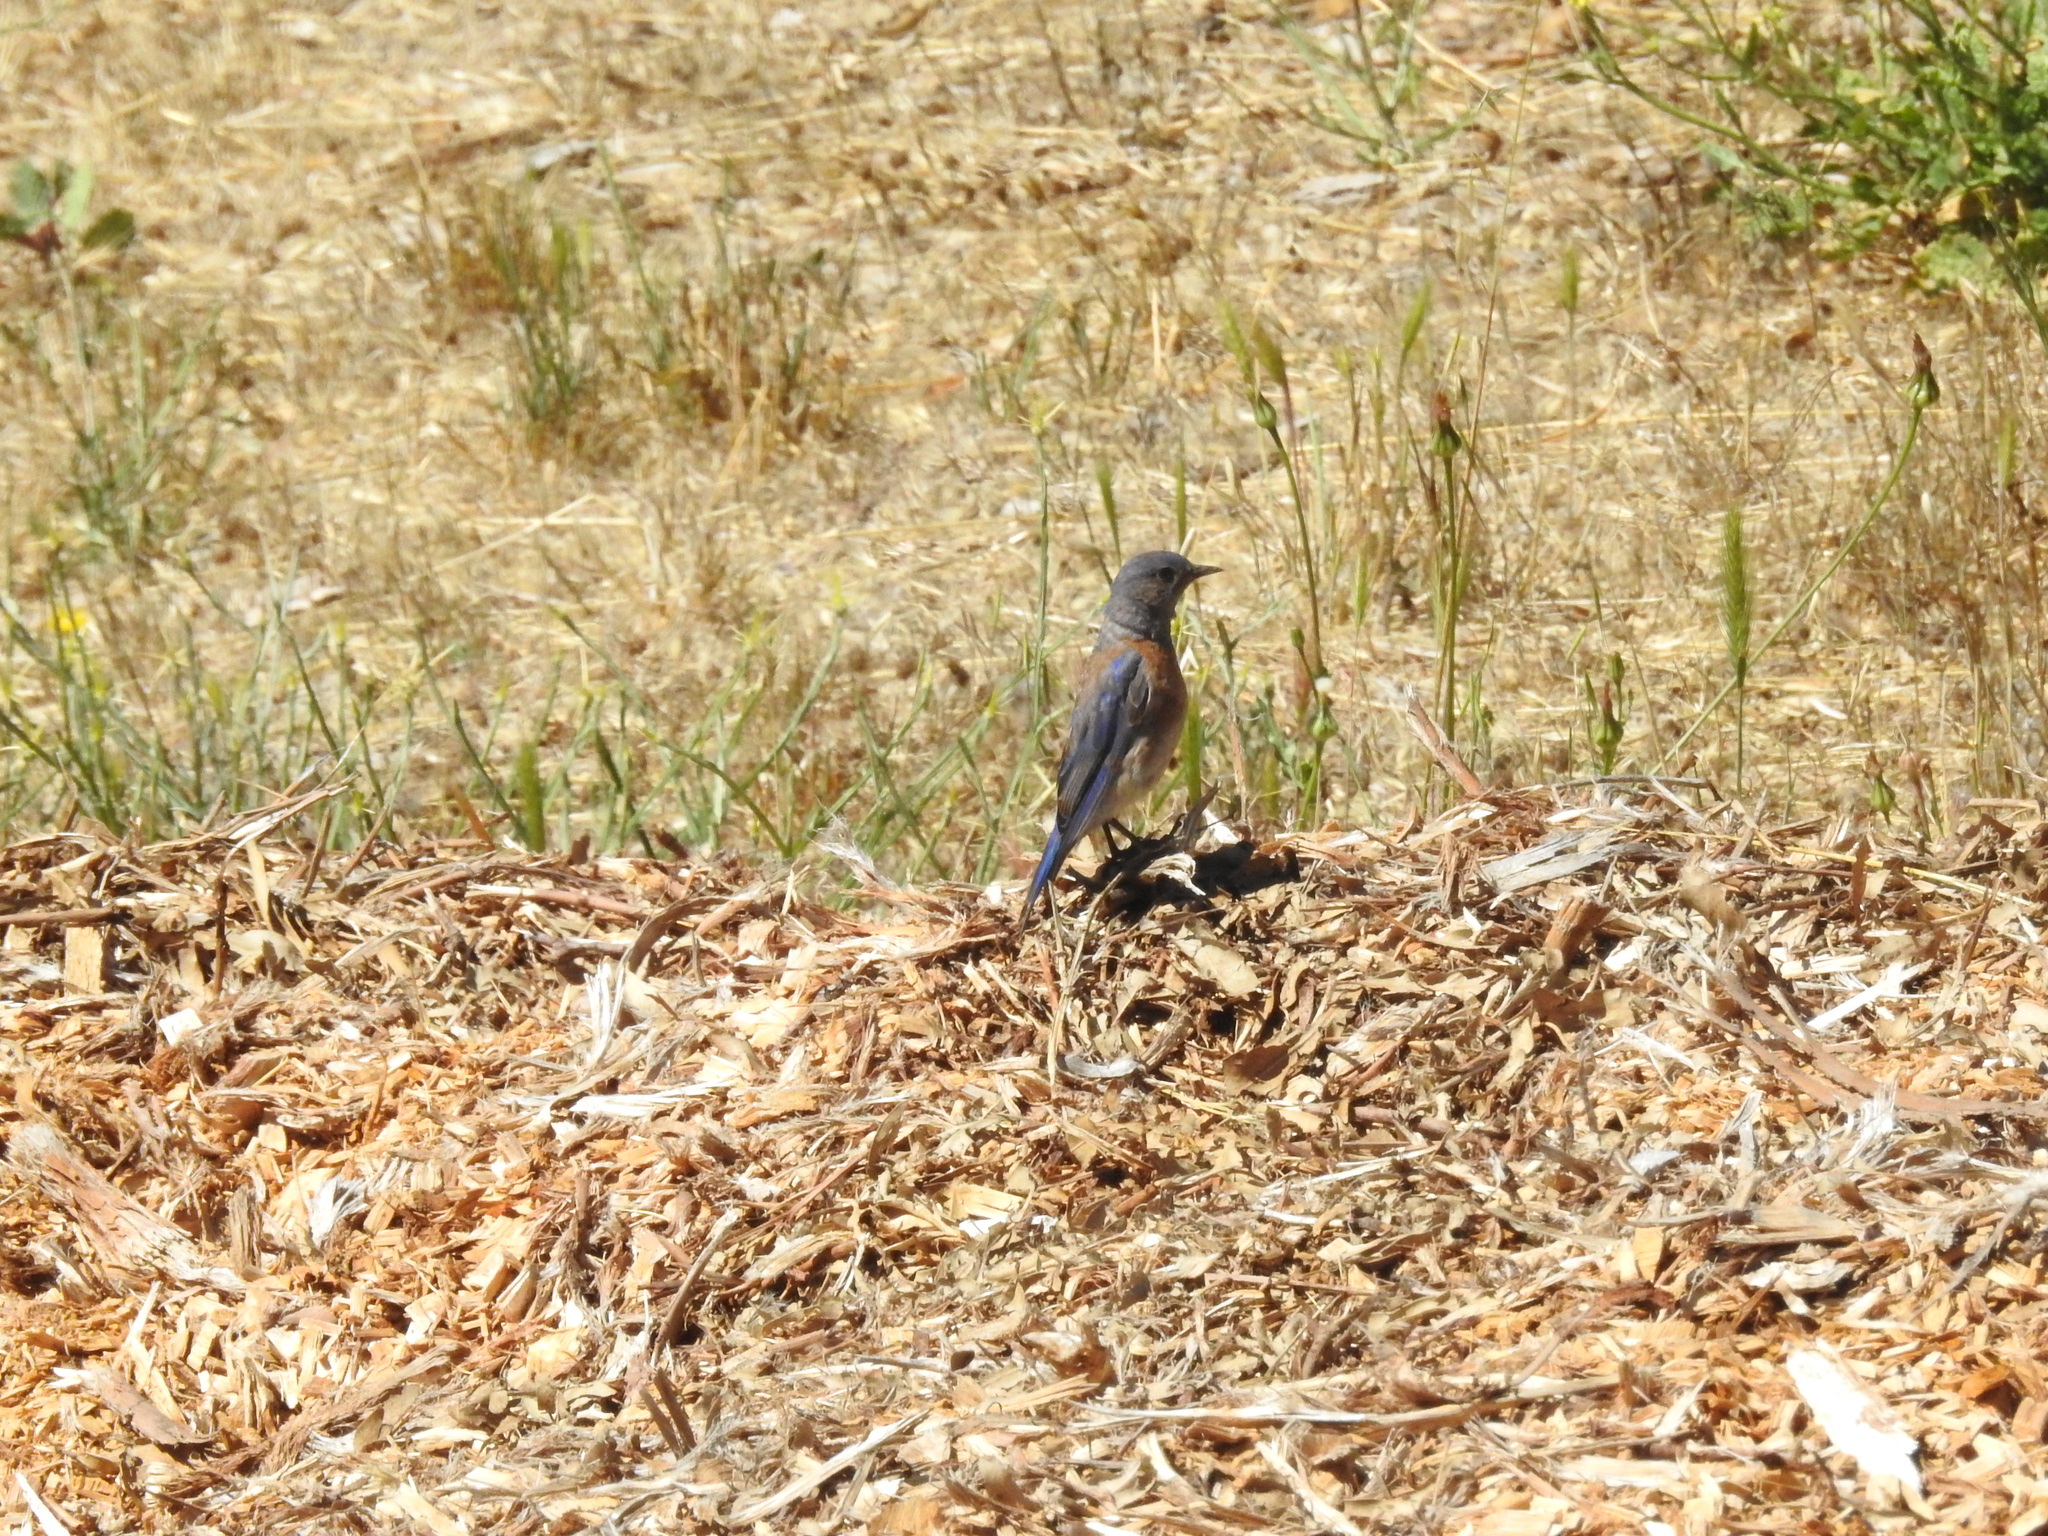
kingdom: Animalia
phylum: Chordata
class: Aves
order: Passeriformes
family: Turdidae
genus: Sialia
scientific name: Sialia mexicana
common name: Western bluebird
